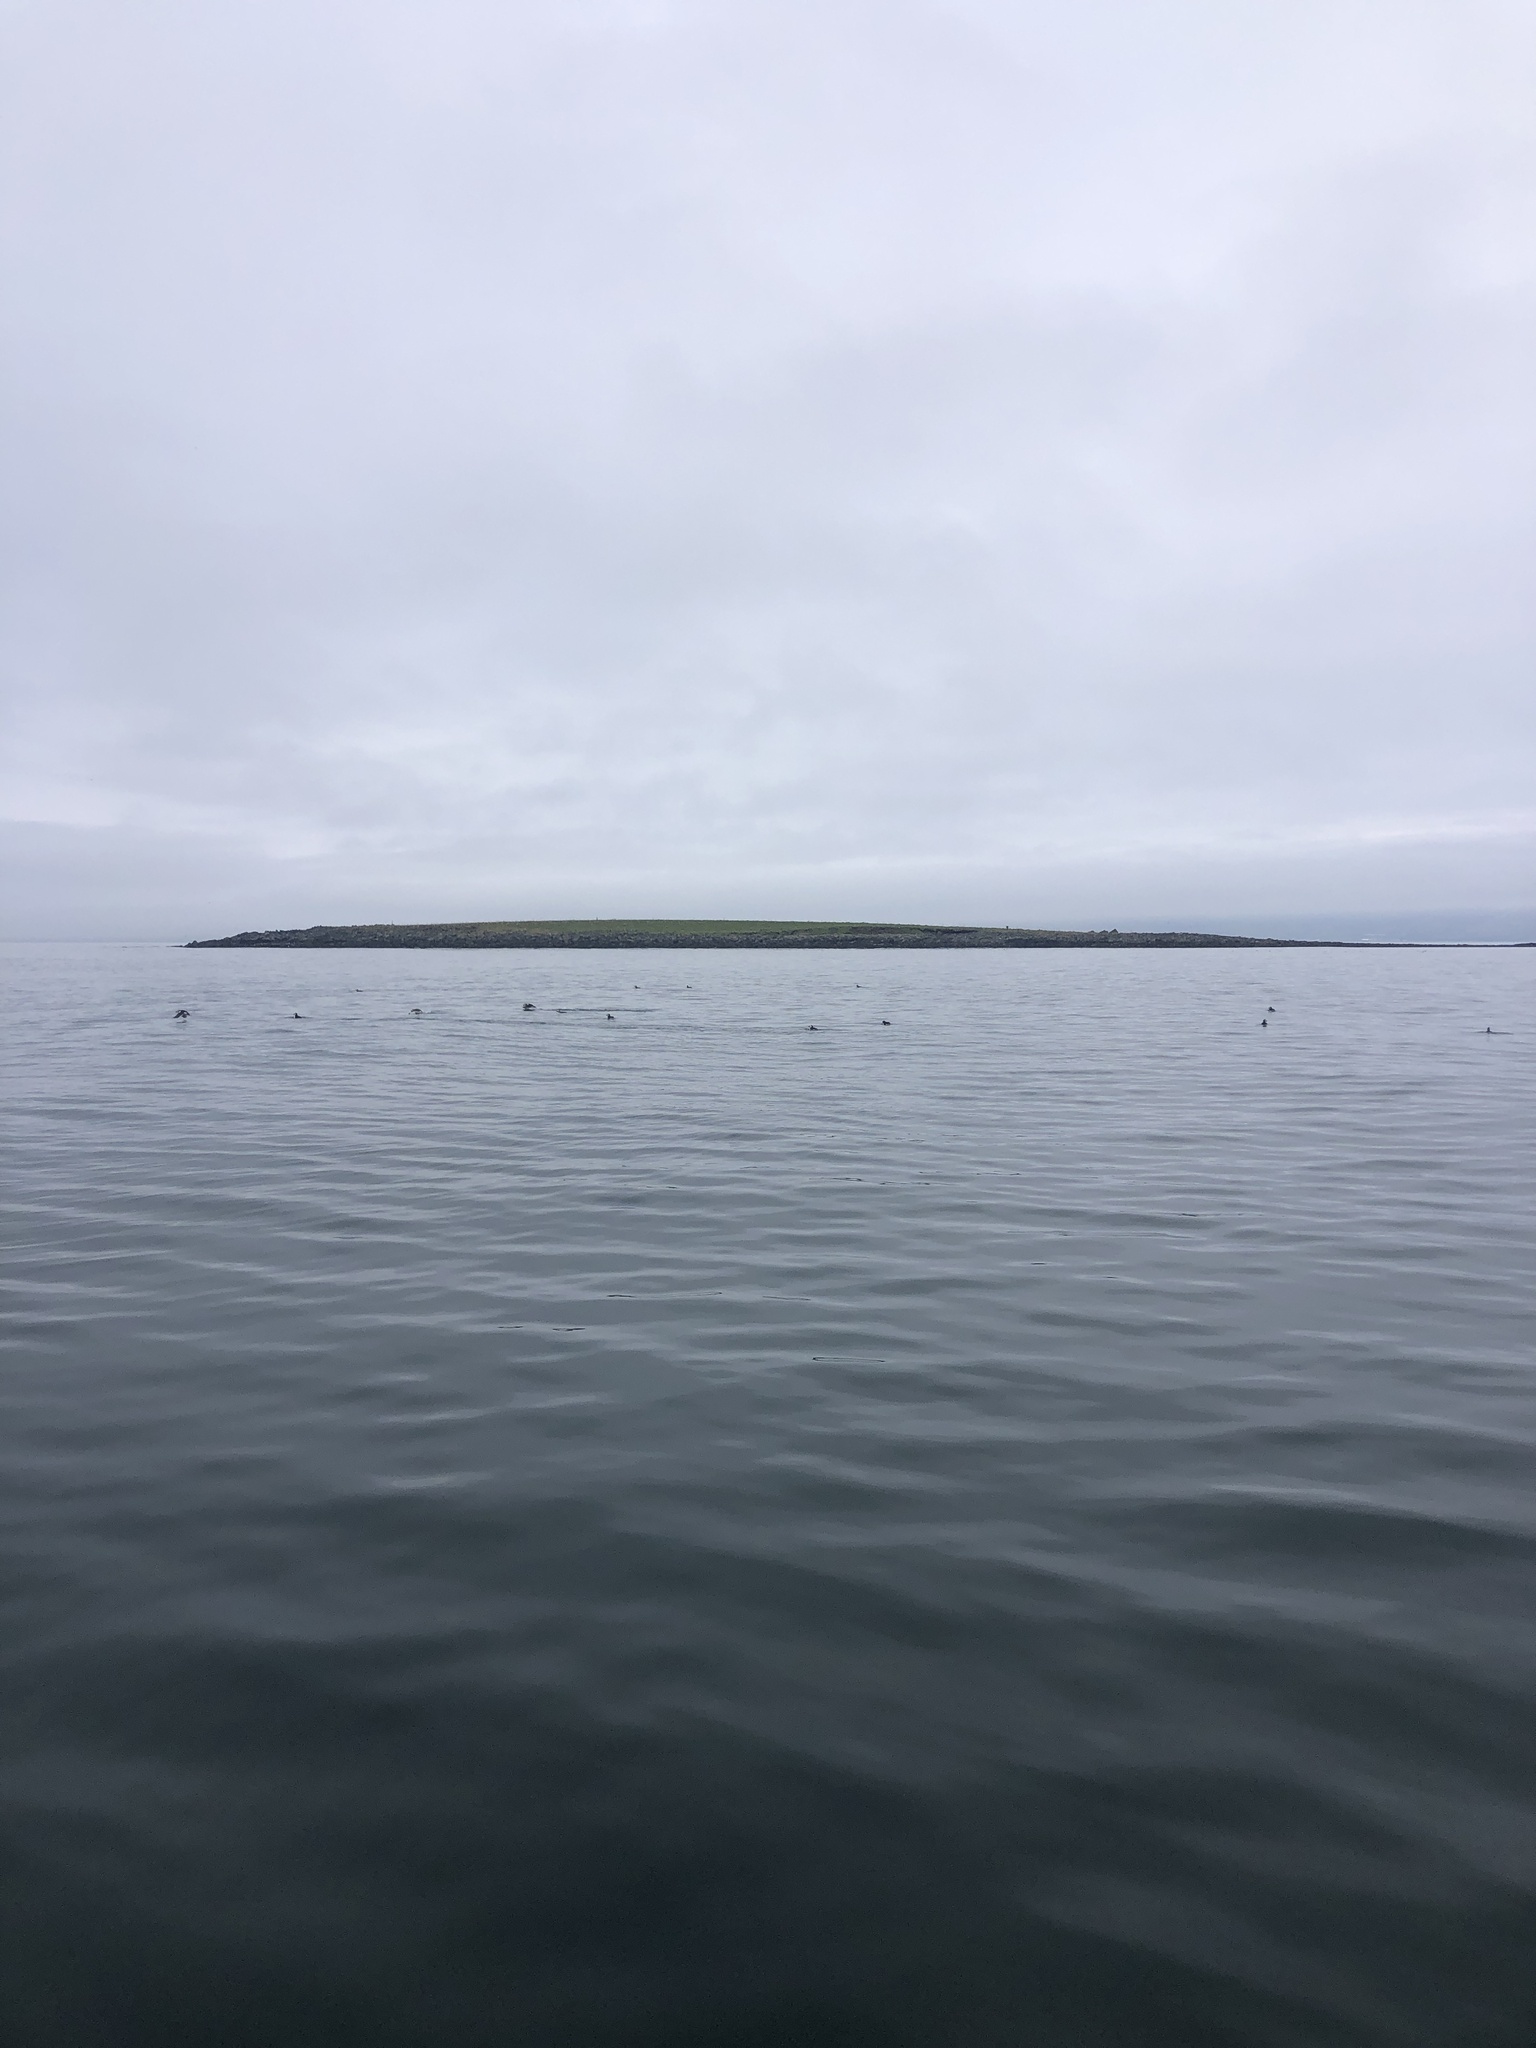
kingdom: Animalia
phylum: Chordata
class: Aves
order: Charadriiformes
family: Alcidae
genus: Fratercula
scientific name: Fratercula arctica
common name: Atlantic puffin
